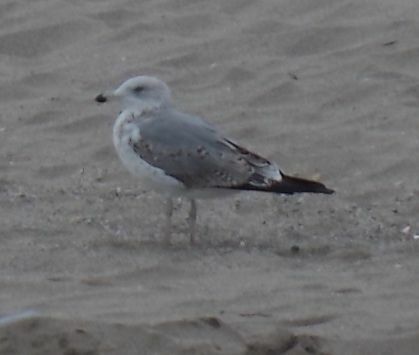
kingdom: Animalia
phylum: Chordata
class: Aves
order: Charadriiformes
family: Laridae
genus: Larus
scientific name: Larus michahellis
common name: Yellow-legged gull
